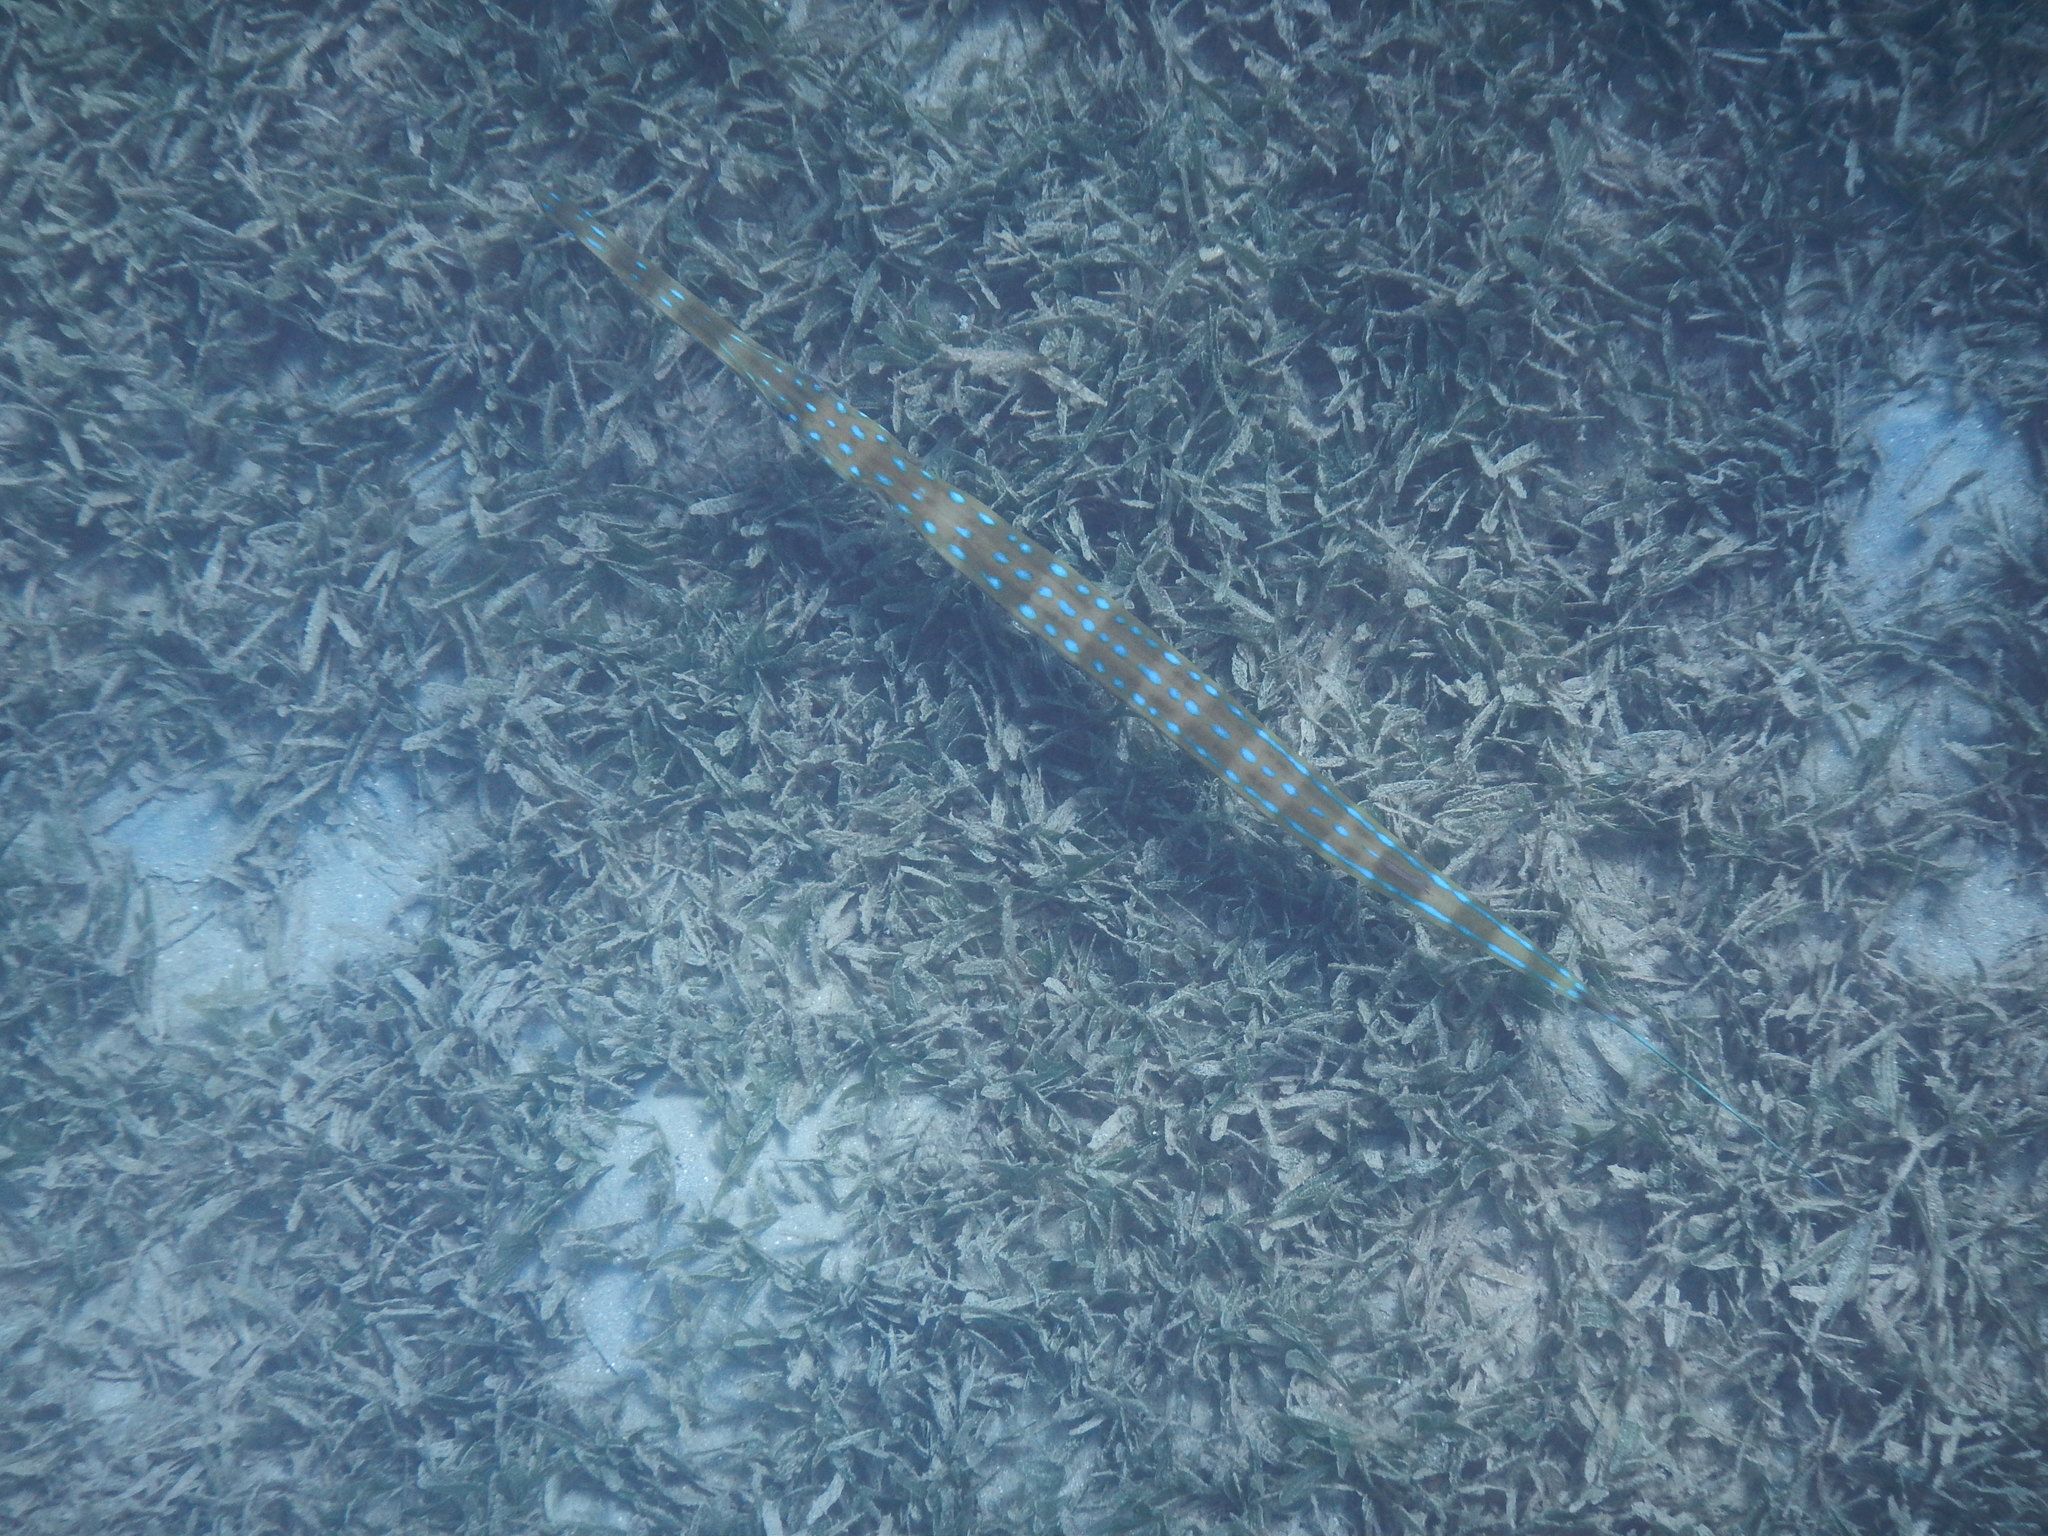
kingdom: Animalia
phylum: Chordata
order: Syngnathiformes
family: Fistulariidae
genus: Fistularia
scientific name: Fistularia tabacaria
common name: Blue-spotted cornetfish
